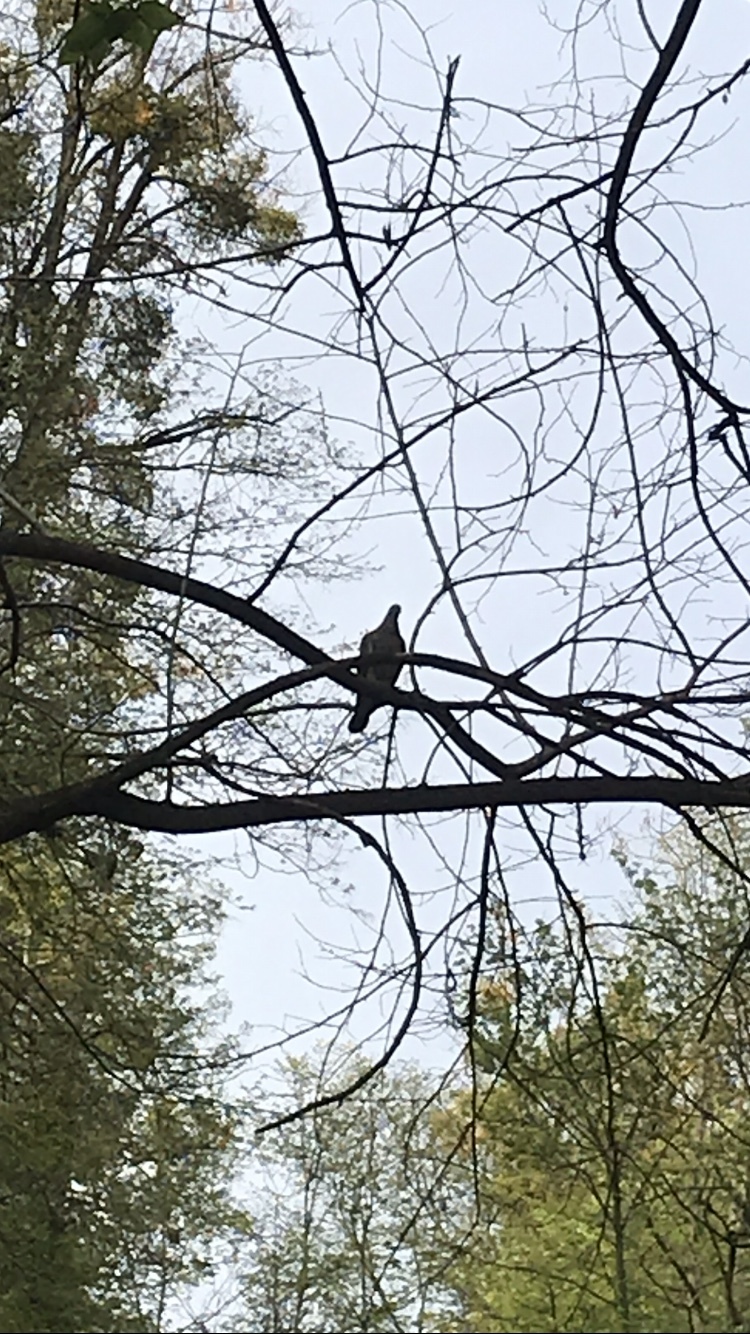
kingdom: Animalia
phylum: Chordata
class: Aves
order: Columbiformes
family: Columbidae
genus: Columba
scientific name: Columba palumbus
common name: Common wood pigeon
